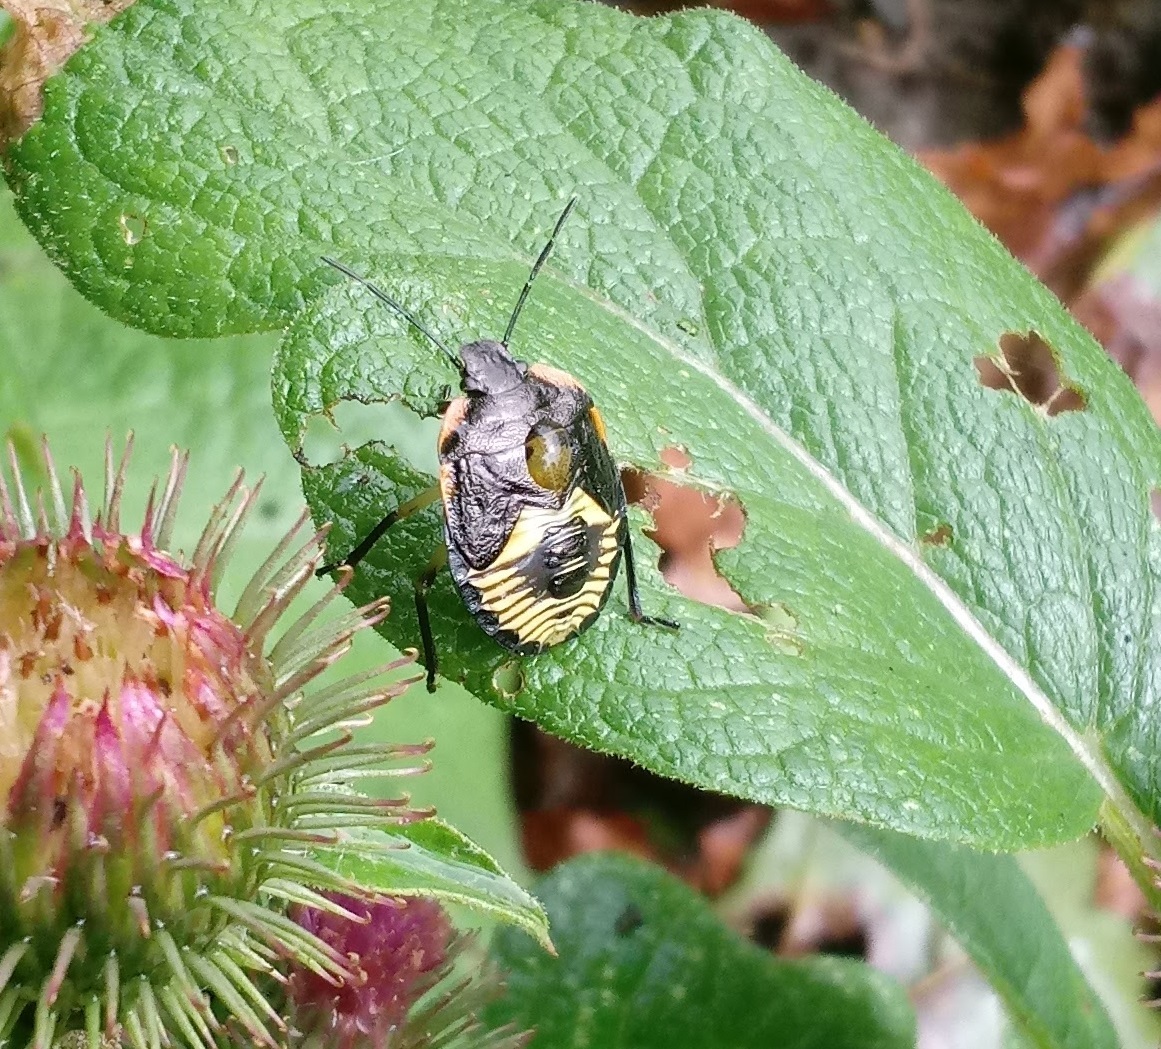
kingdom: Animalia
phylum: Arthropoda
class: Insecta
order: Hemiptera
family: Pentatomidae
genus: Chinavia
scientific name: Chinavia hilaris
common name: Green stink bug
